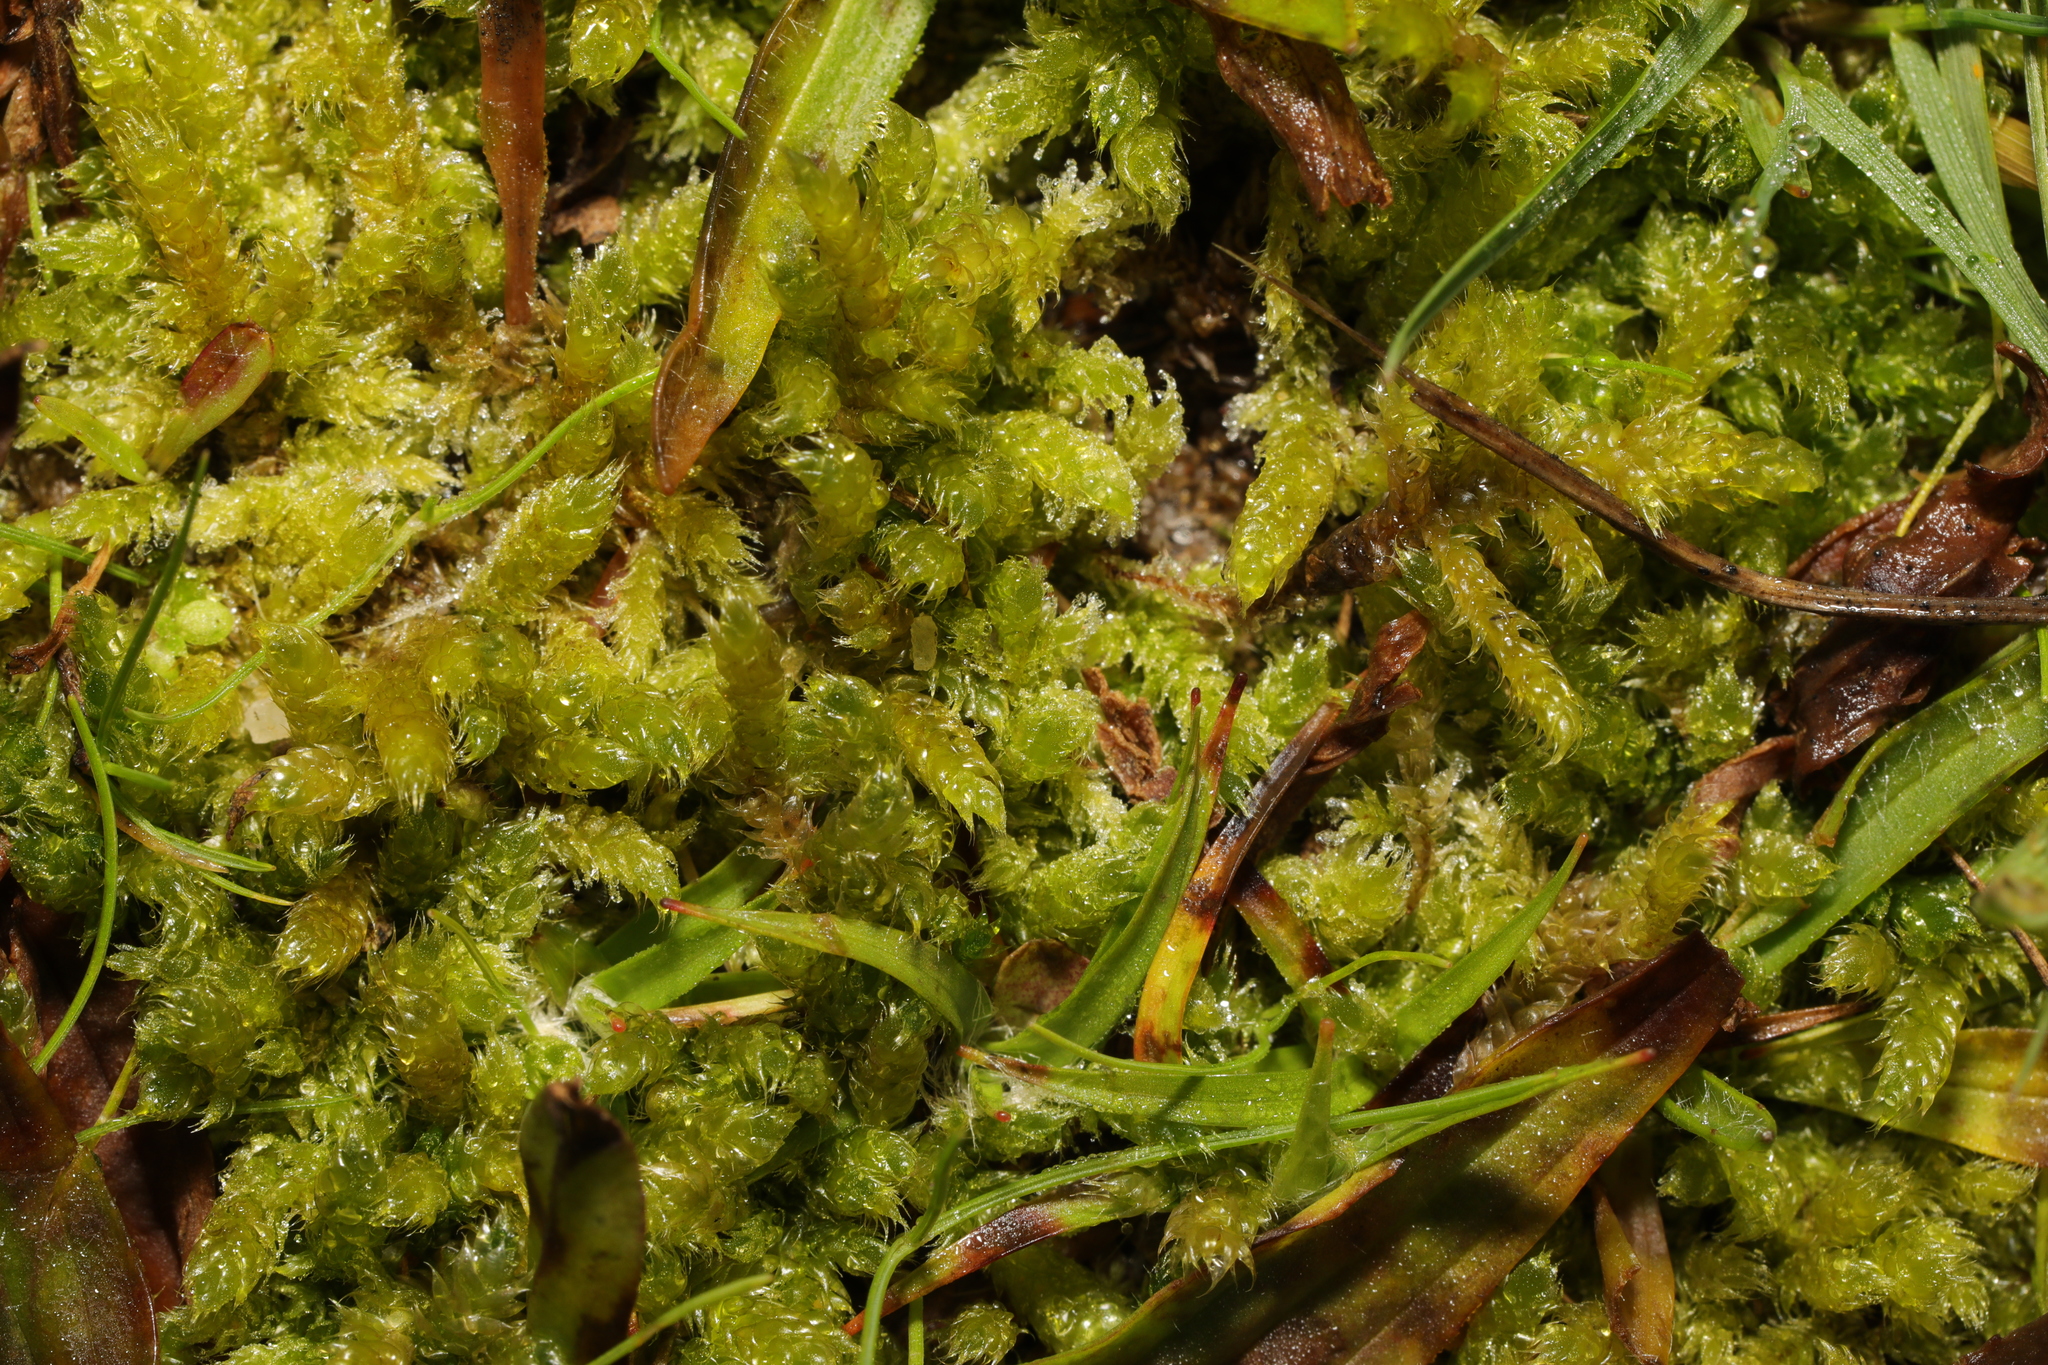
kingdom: Plantae
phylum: Bryophyta
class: Bryopsida
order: Hypnales
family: Hypnaceae
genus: Hypnum
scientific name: Hypnum cupressiforme
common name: Cypress-leaved plait-moss
